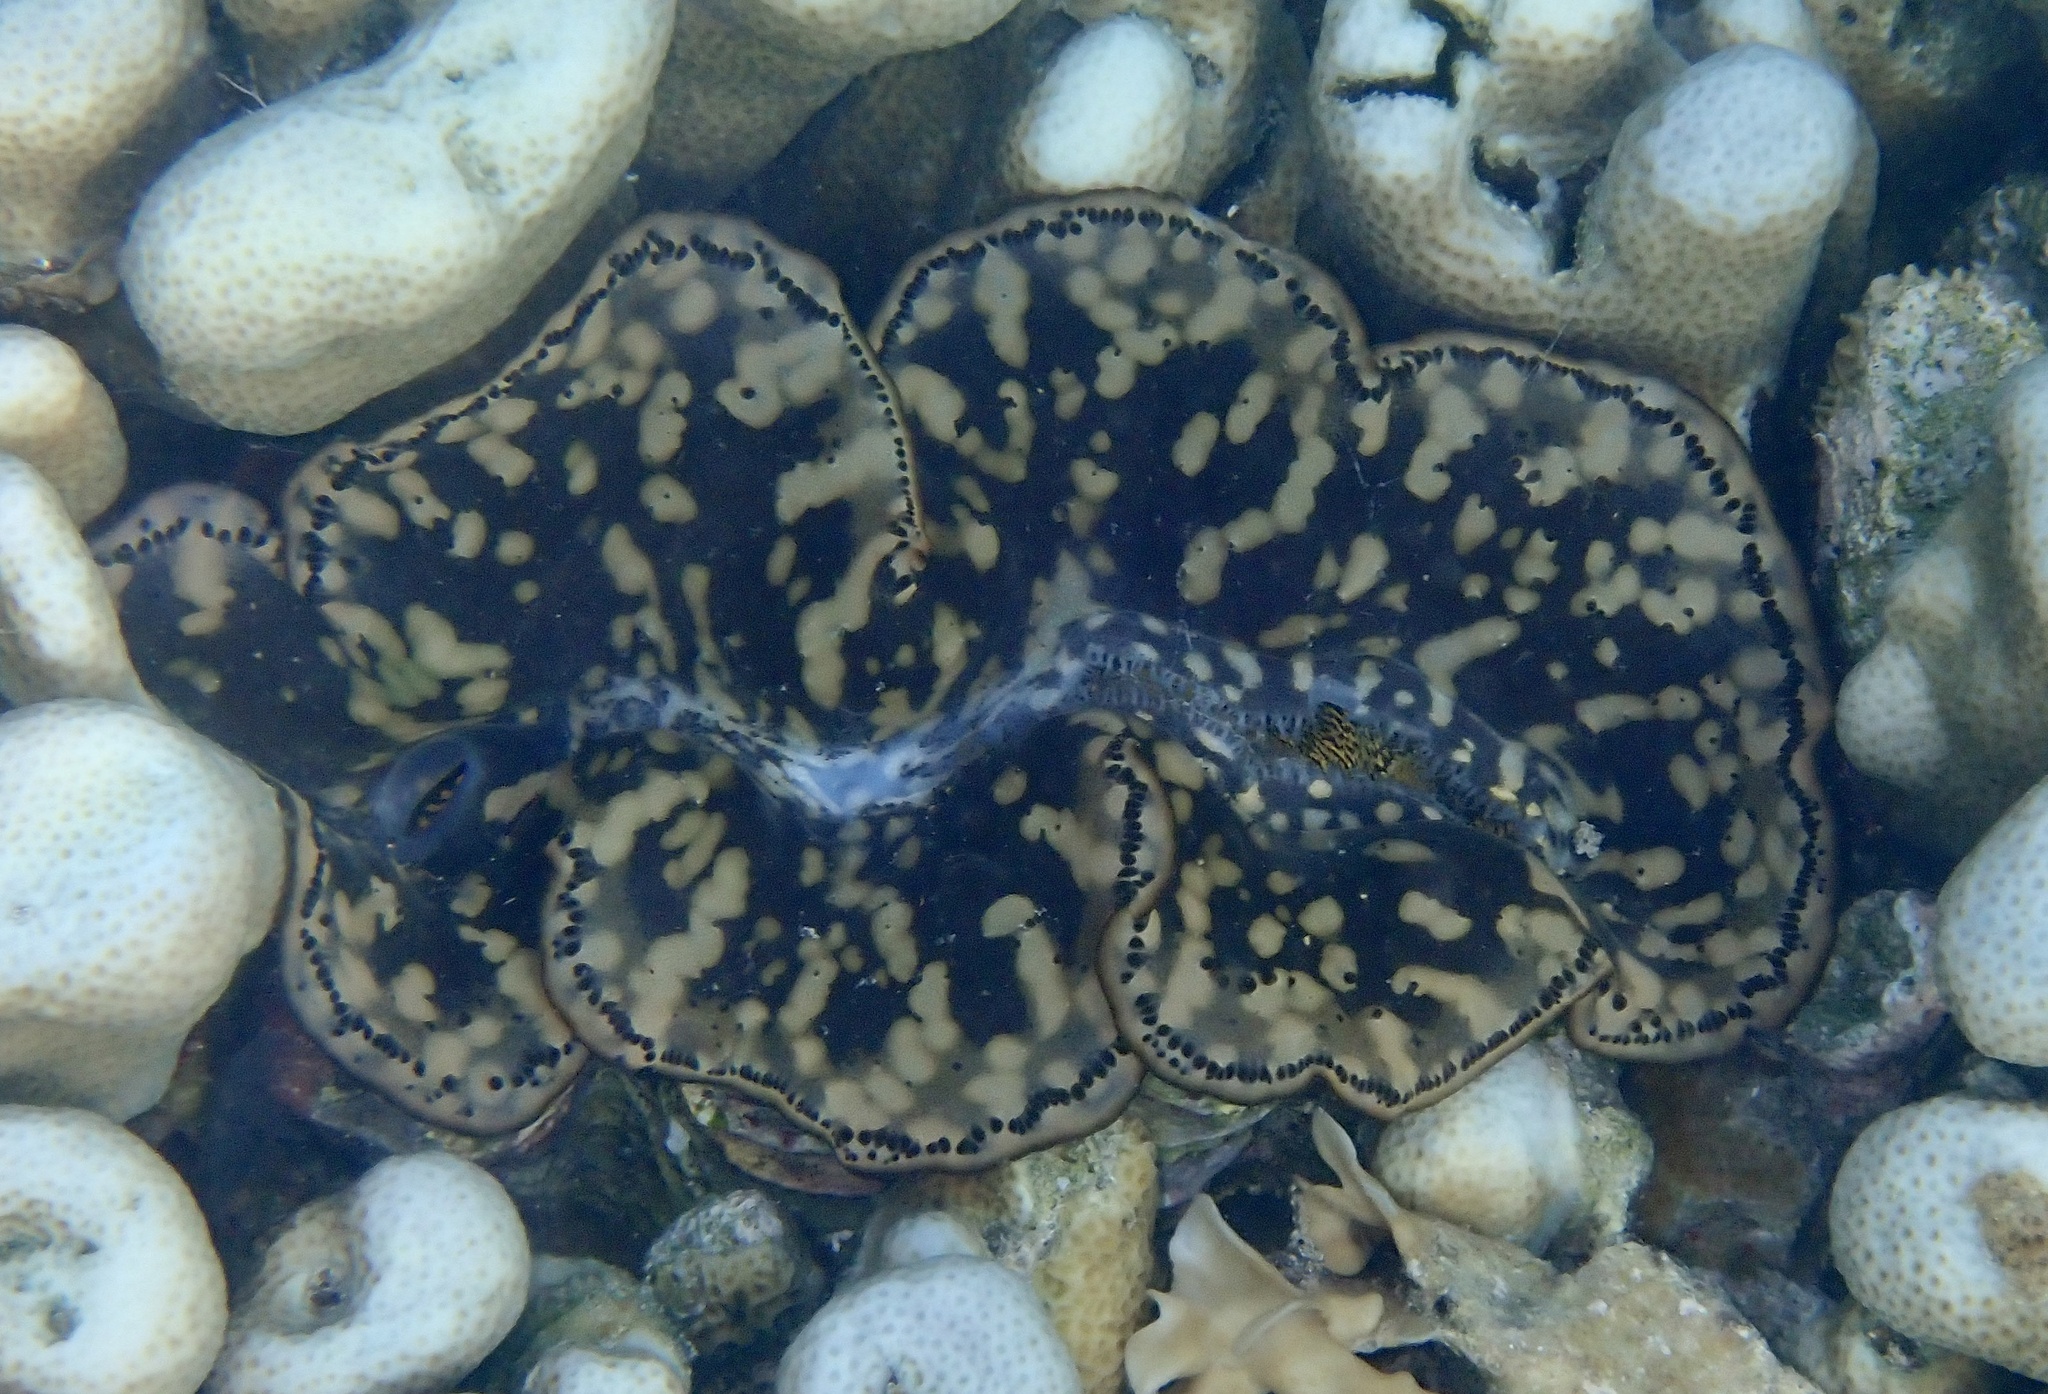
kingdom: Animalia
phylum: Mollusca
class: Bivalvia
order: Cardiida
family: Cardiidae
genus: Tridacna
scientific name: Tridacna maxima
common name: Small giant clam
